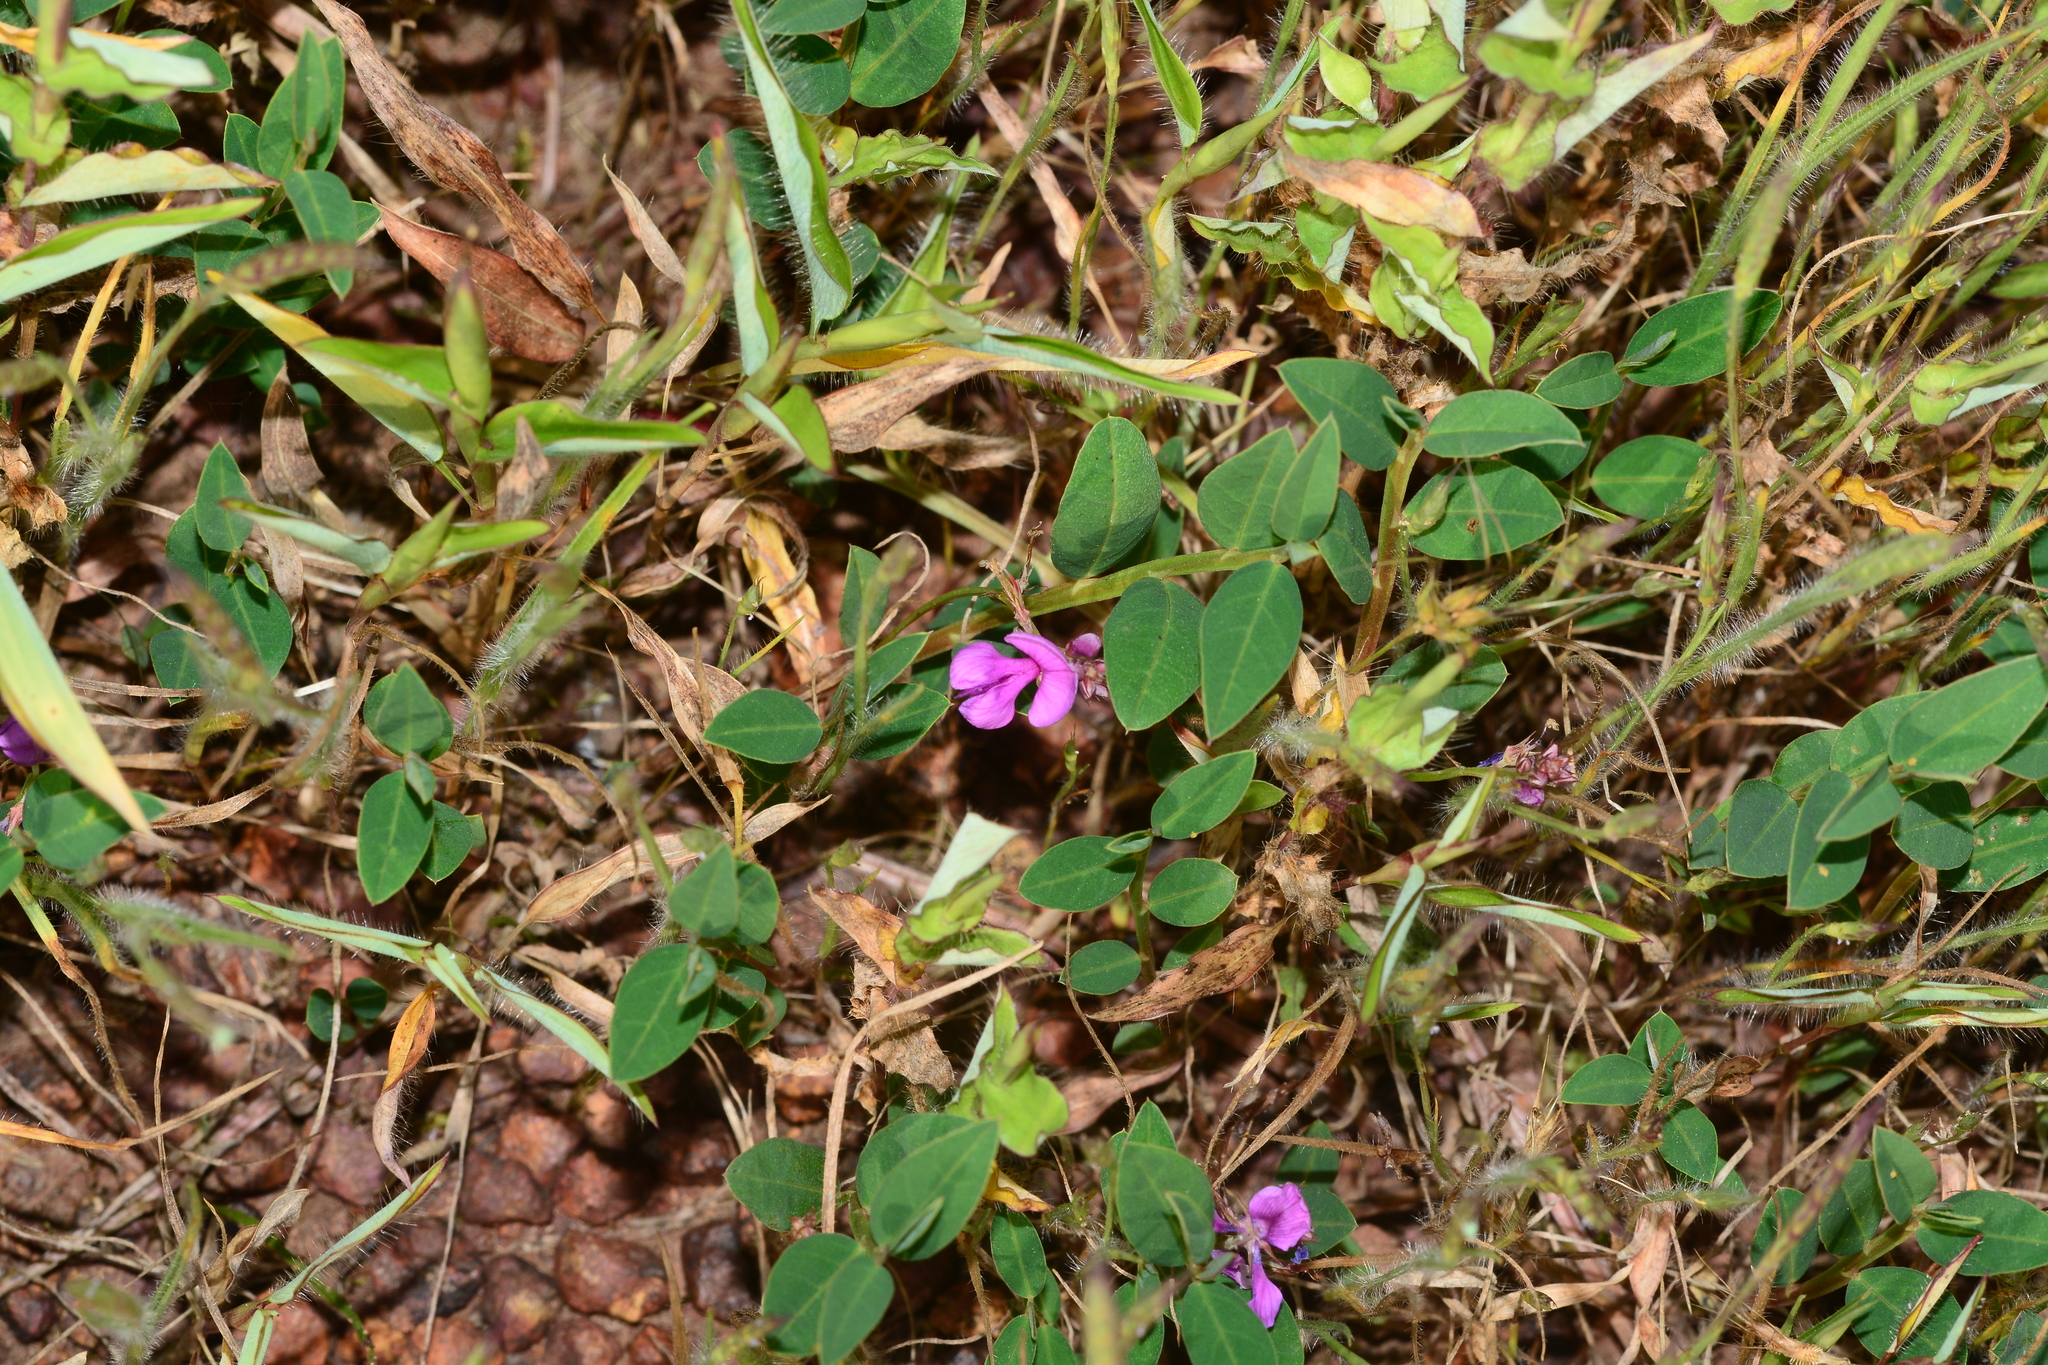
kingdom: Plantae
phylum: Tracheophyta
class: Magnoliopsida
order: Fabales
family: Fabaceae
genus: Indigofera
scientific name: Indigofera dalzelliana
